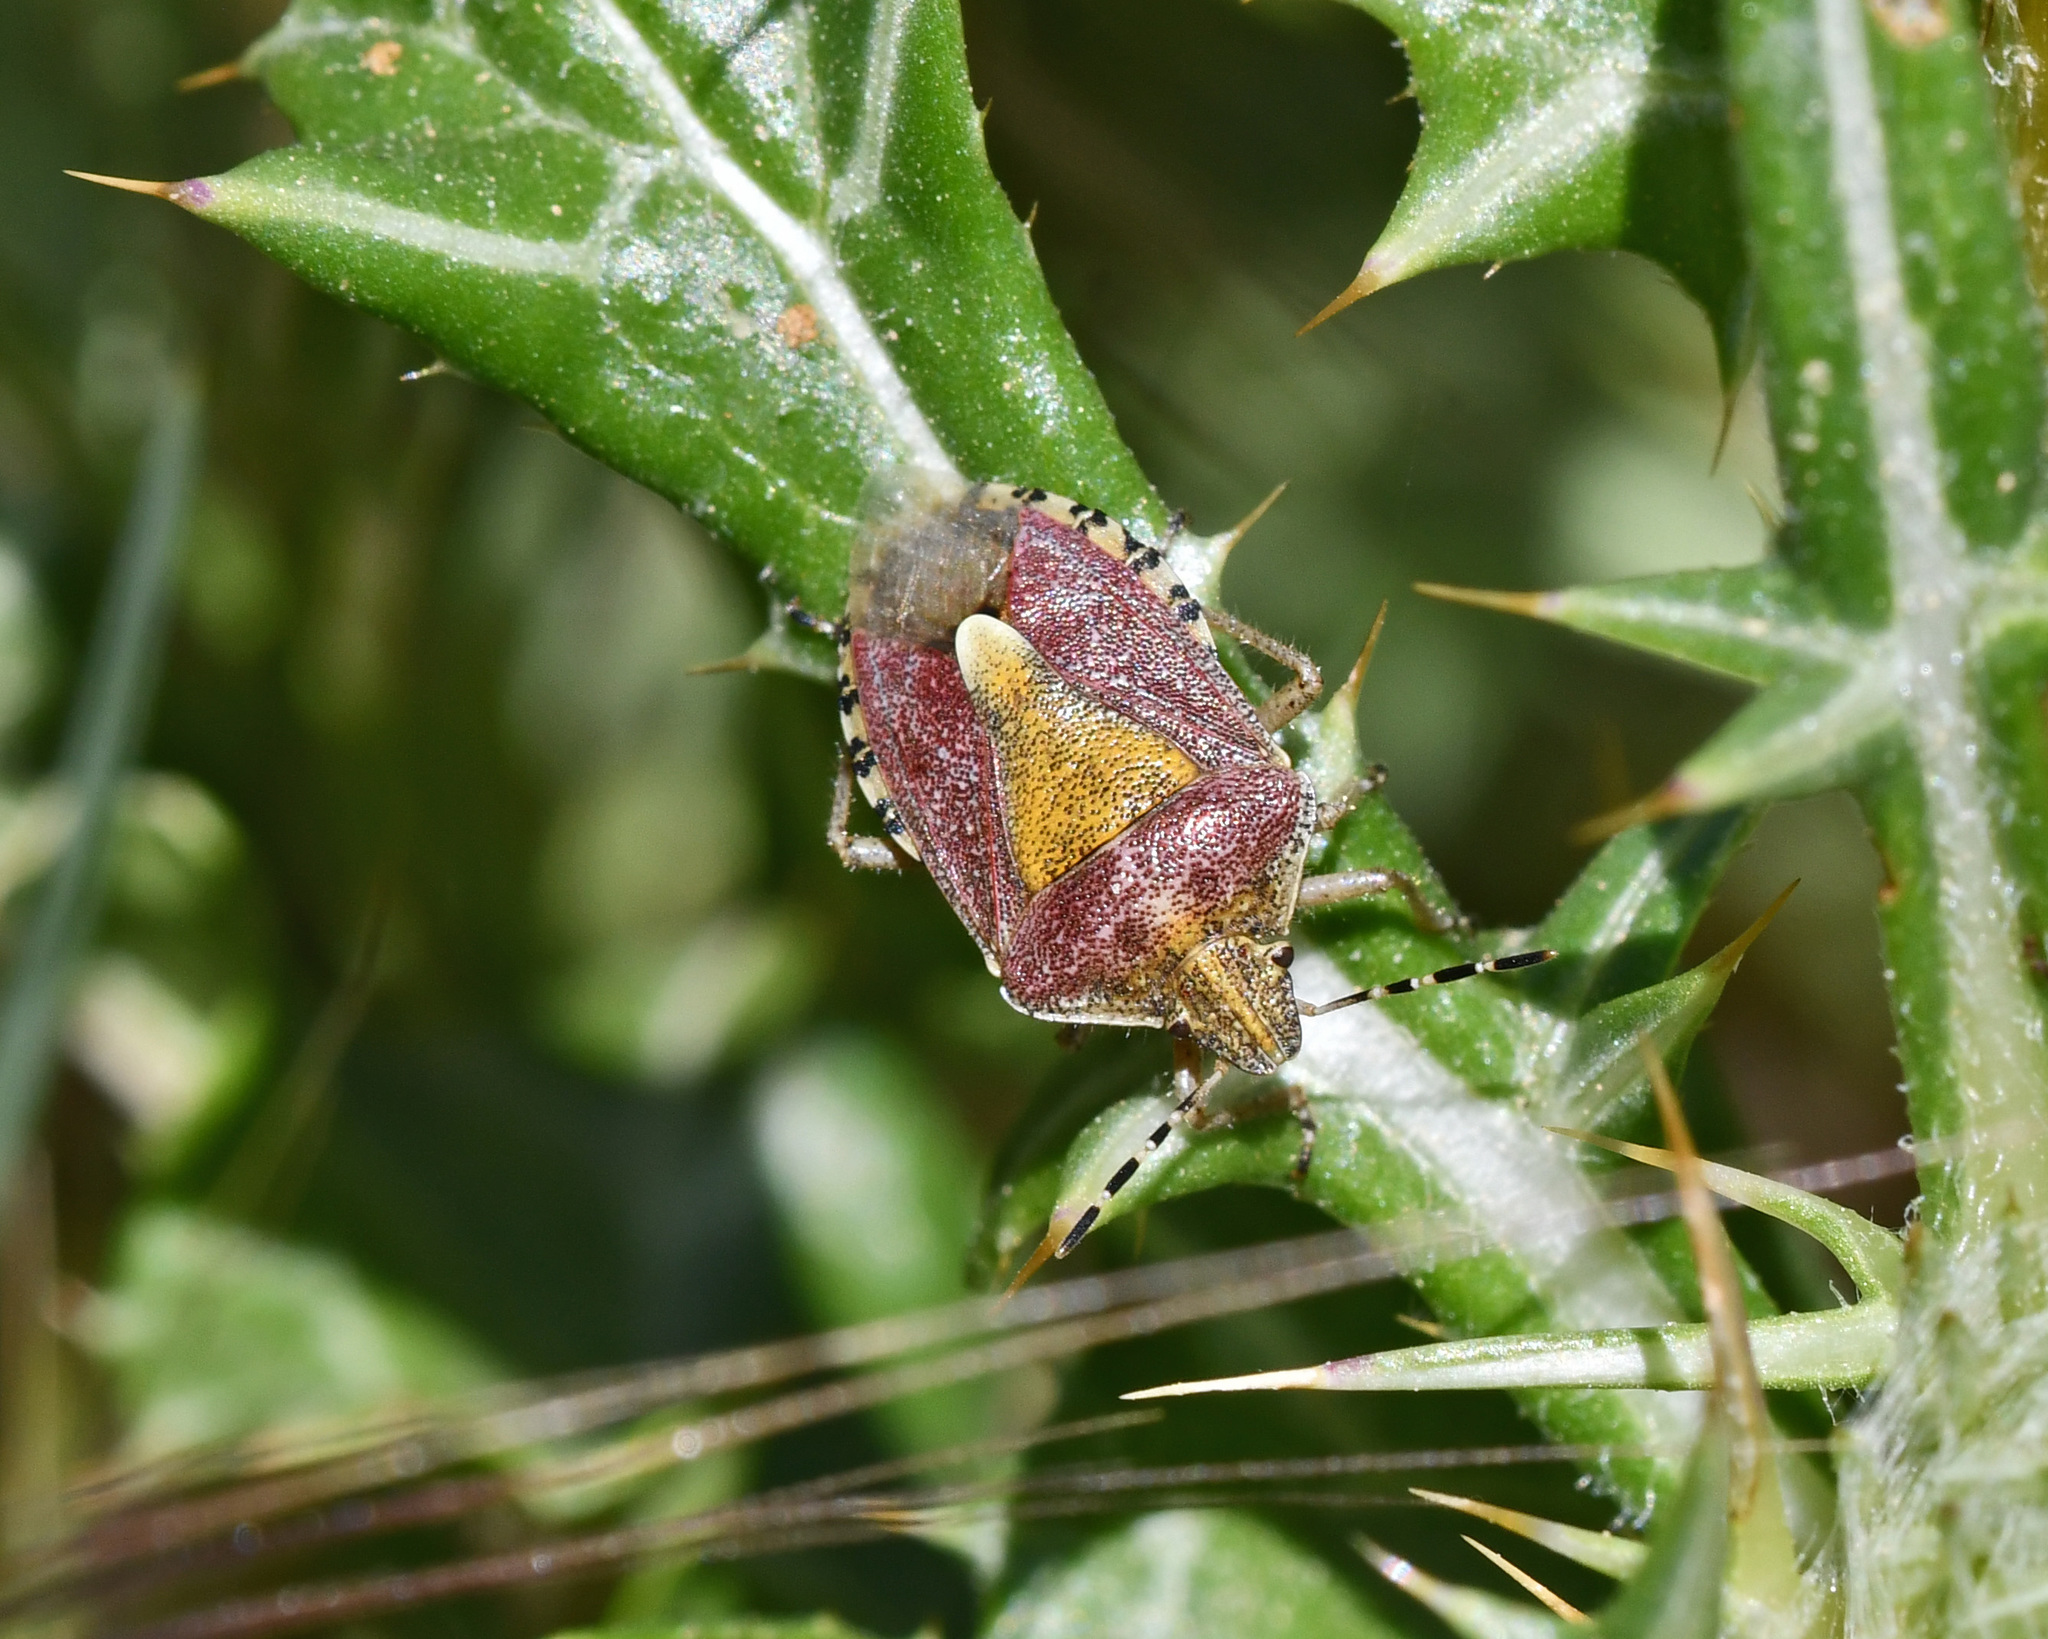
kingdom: Animalia
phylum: Arthropoda
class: Insecta
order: Hemiptera
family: Pentatomidae
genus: Dolycoris
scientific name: Dolycoris baccarum
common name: Sloe bug
